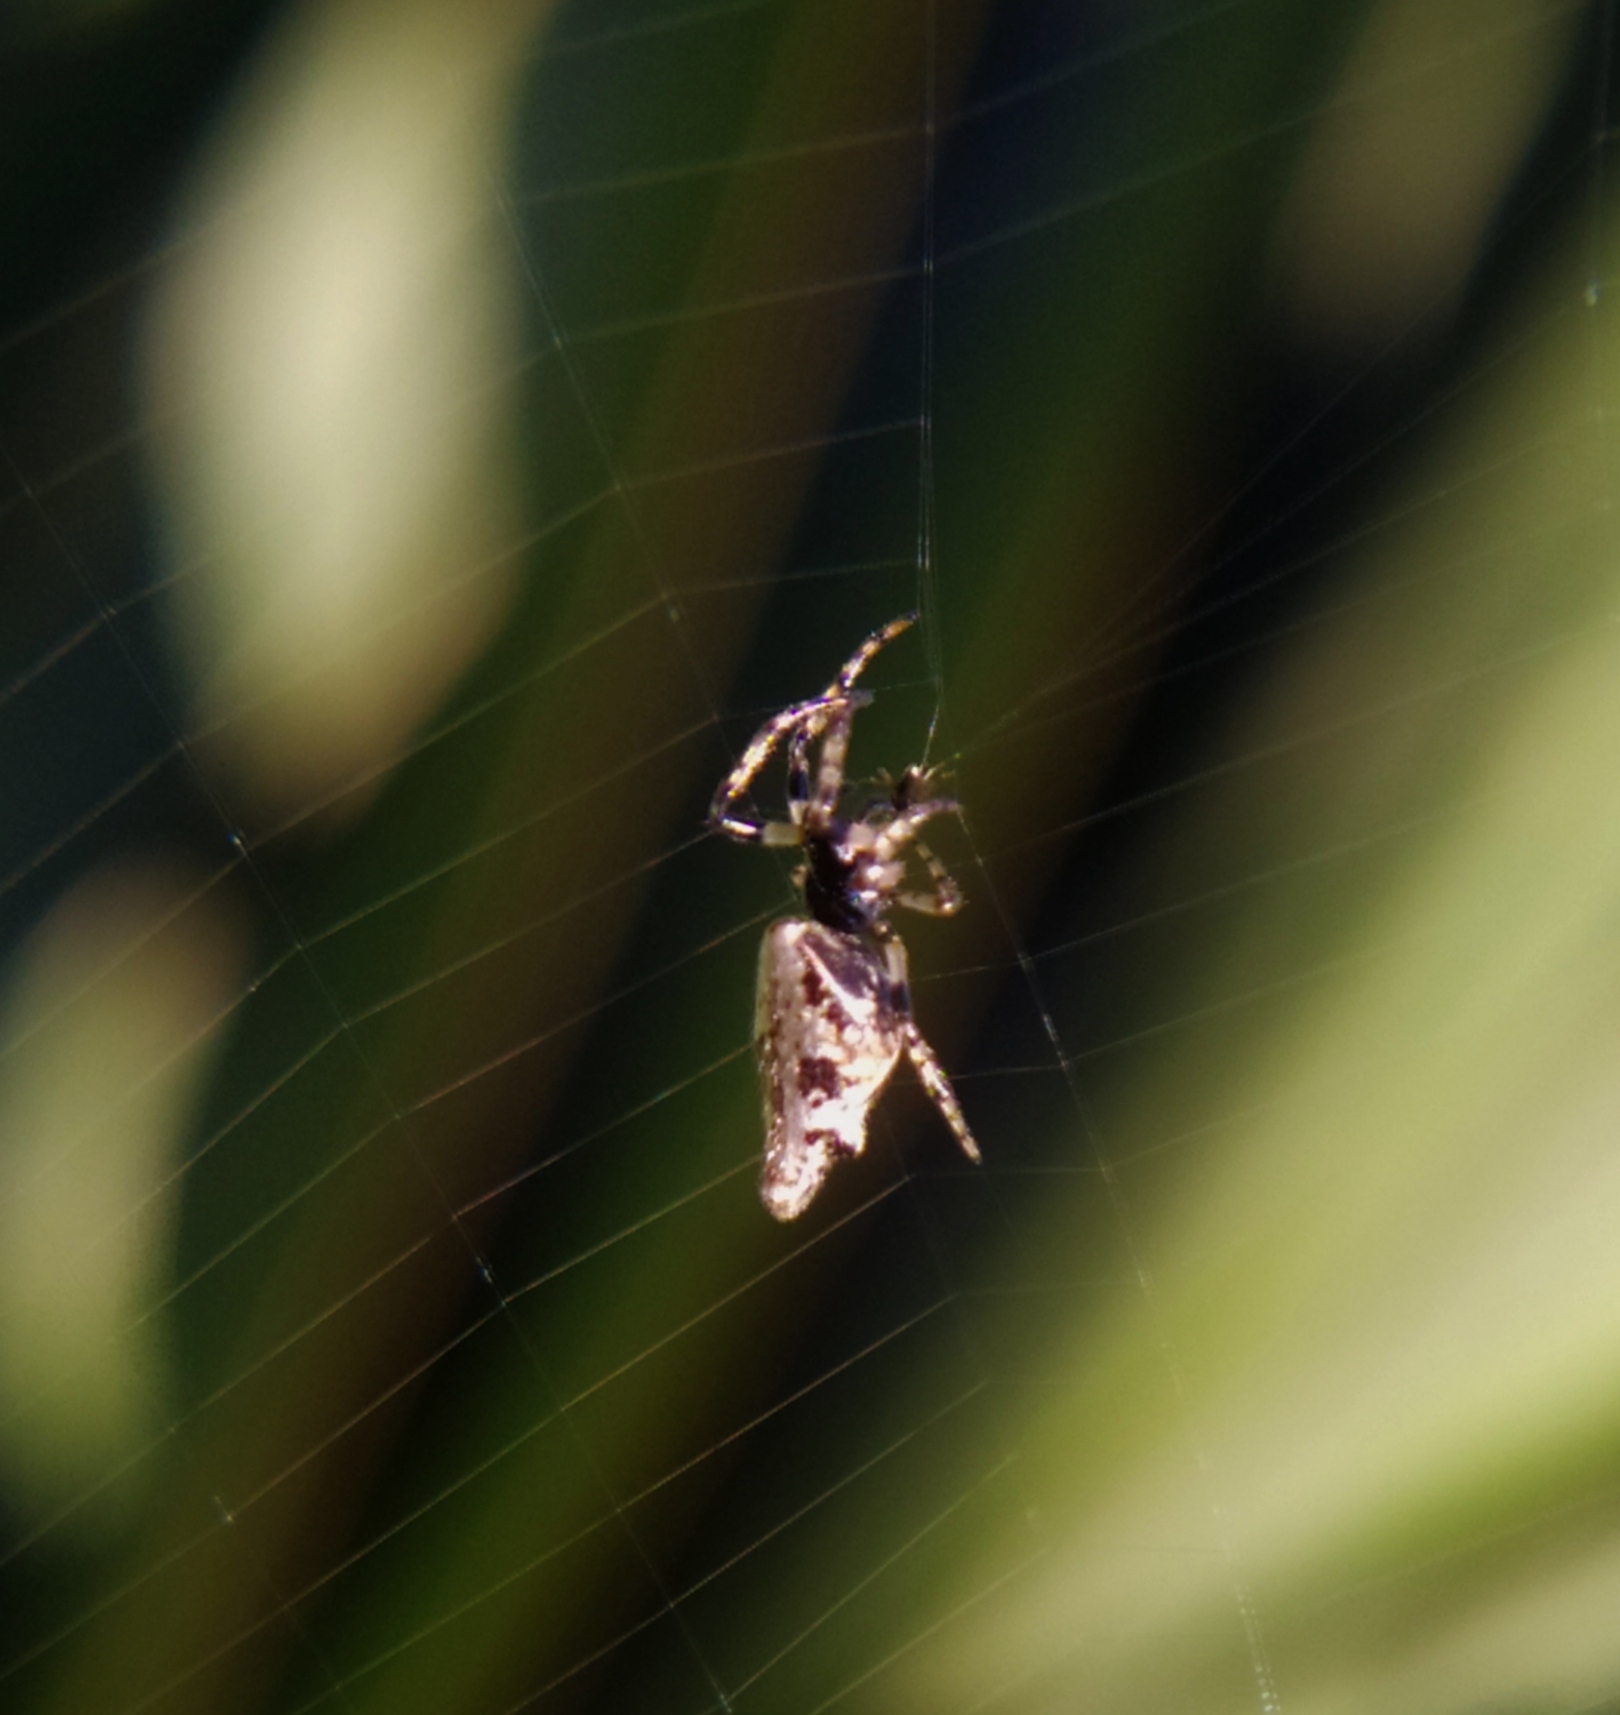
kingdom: Animalia
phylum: Arthropoda
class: Arachnida
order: Araneae
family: Araneidae
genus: Cyclosa
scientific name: Cyclosa insulana
